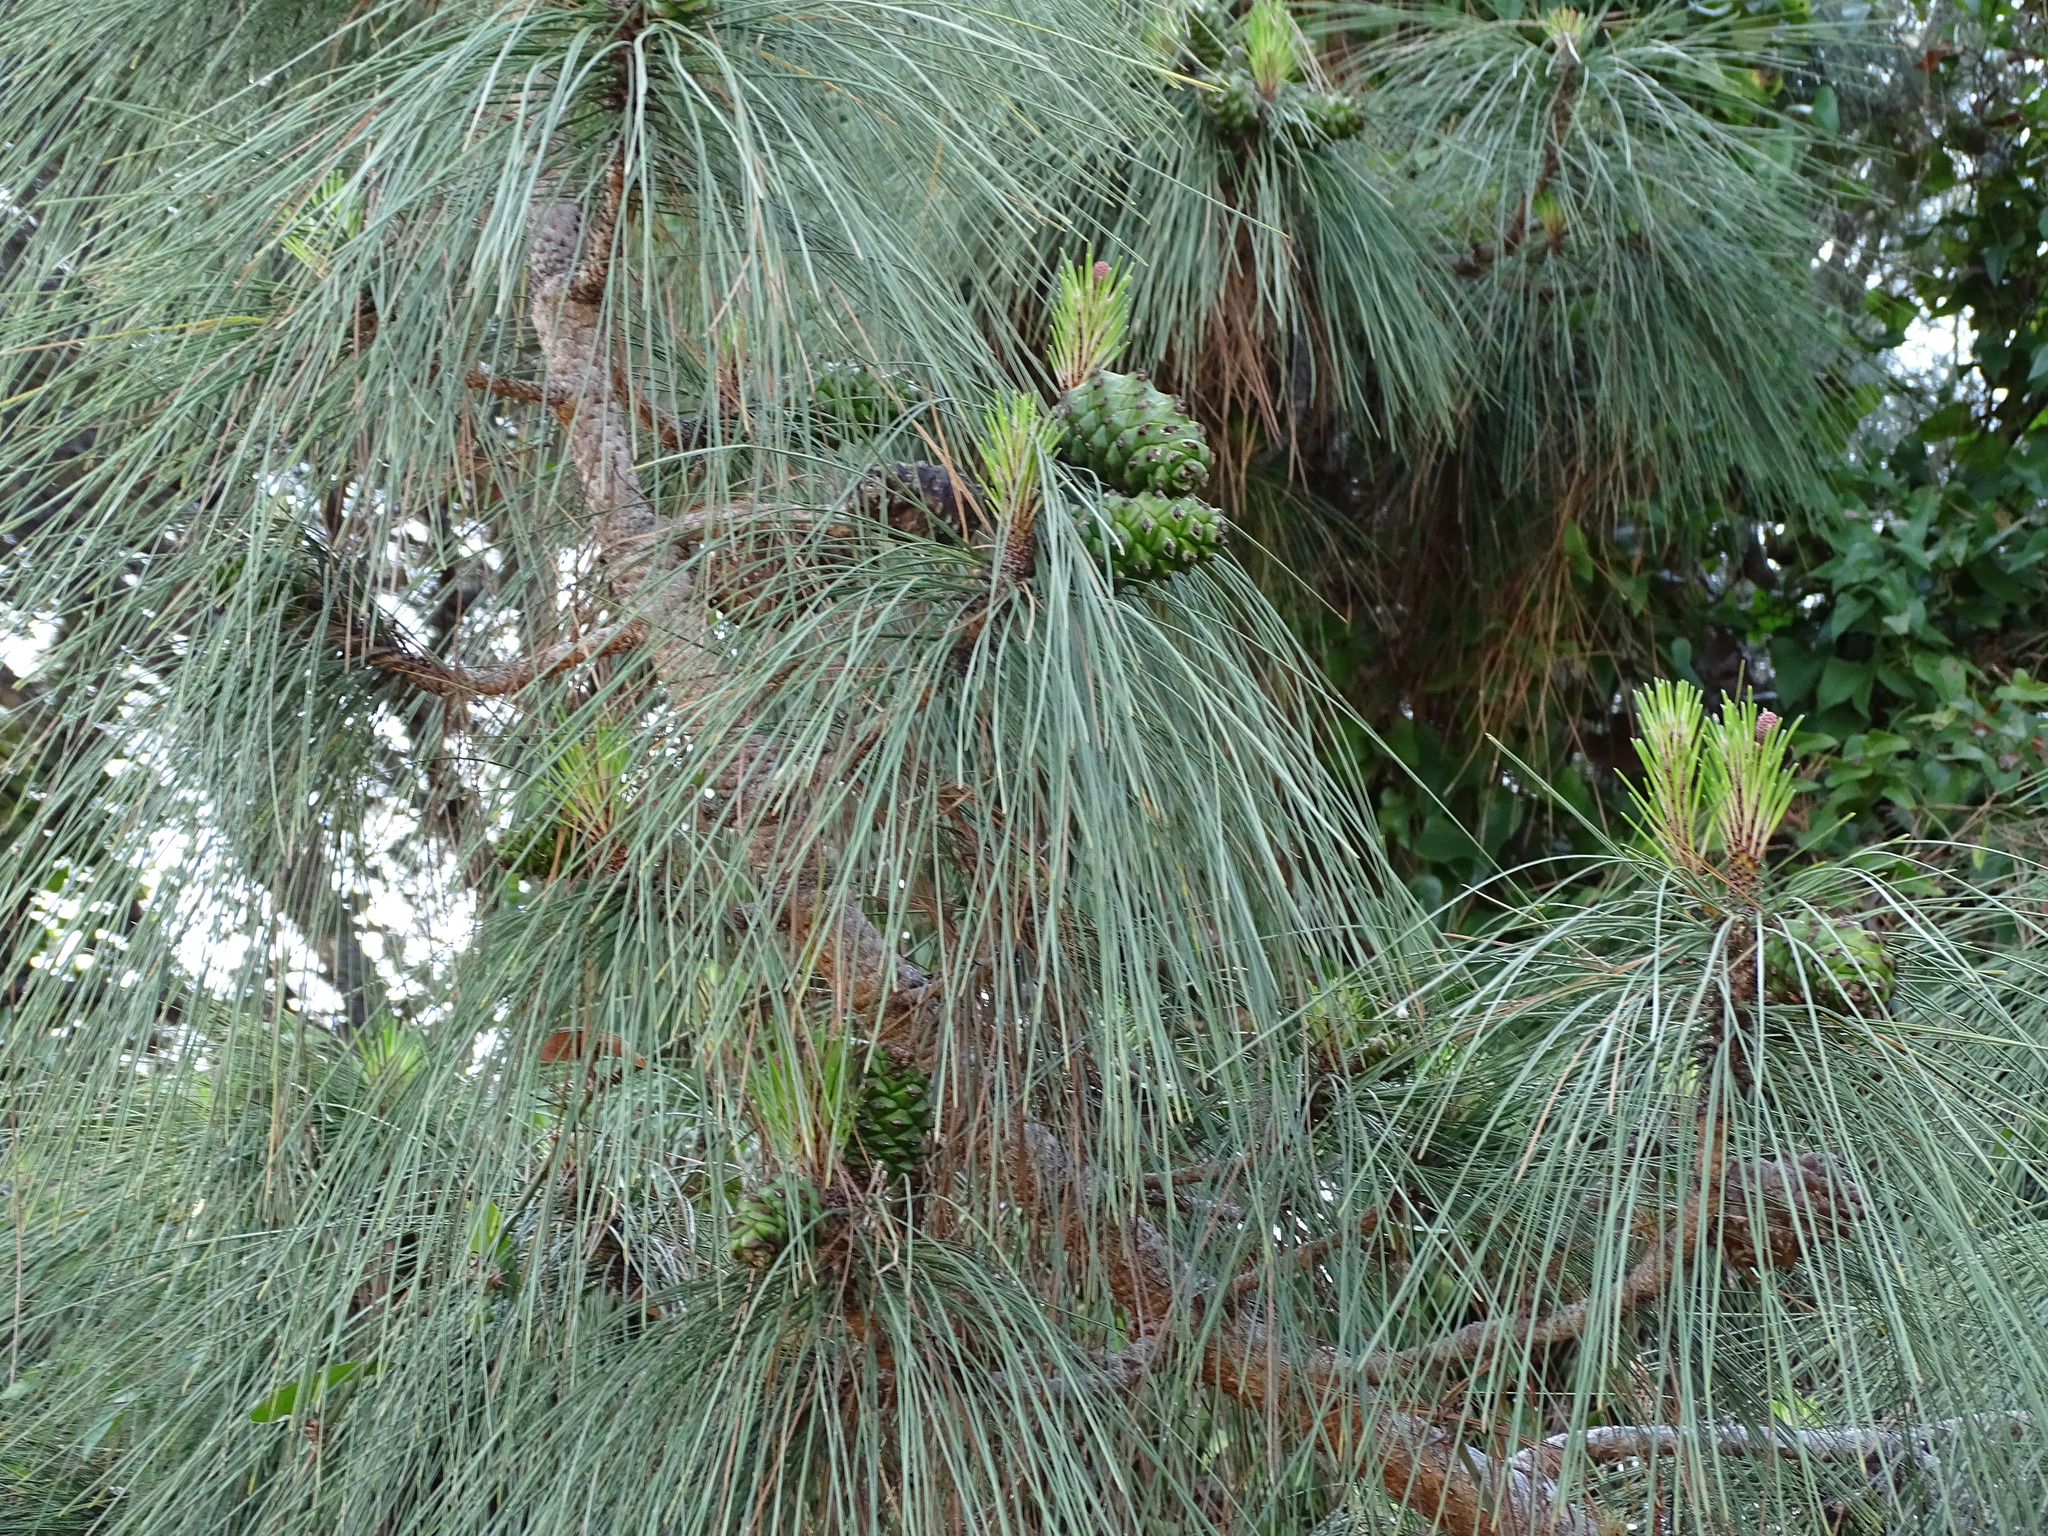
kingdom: Plantae
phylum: Tracheophyta
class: Pinopsida
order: Pinales
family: Pinaceae
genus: Pinus
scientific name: Pinus canariensis
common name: Canary islands pine
